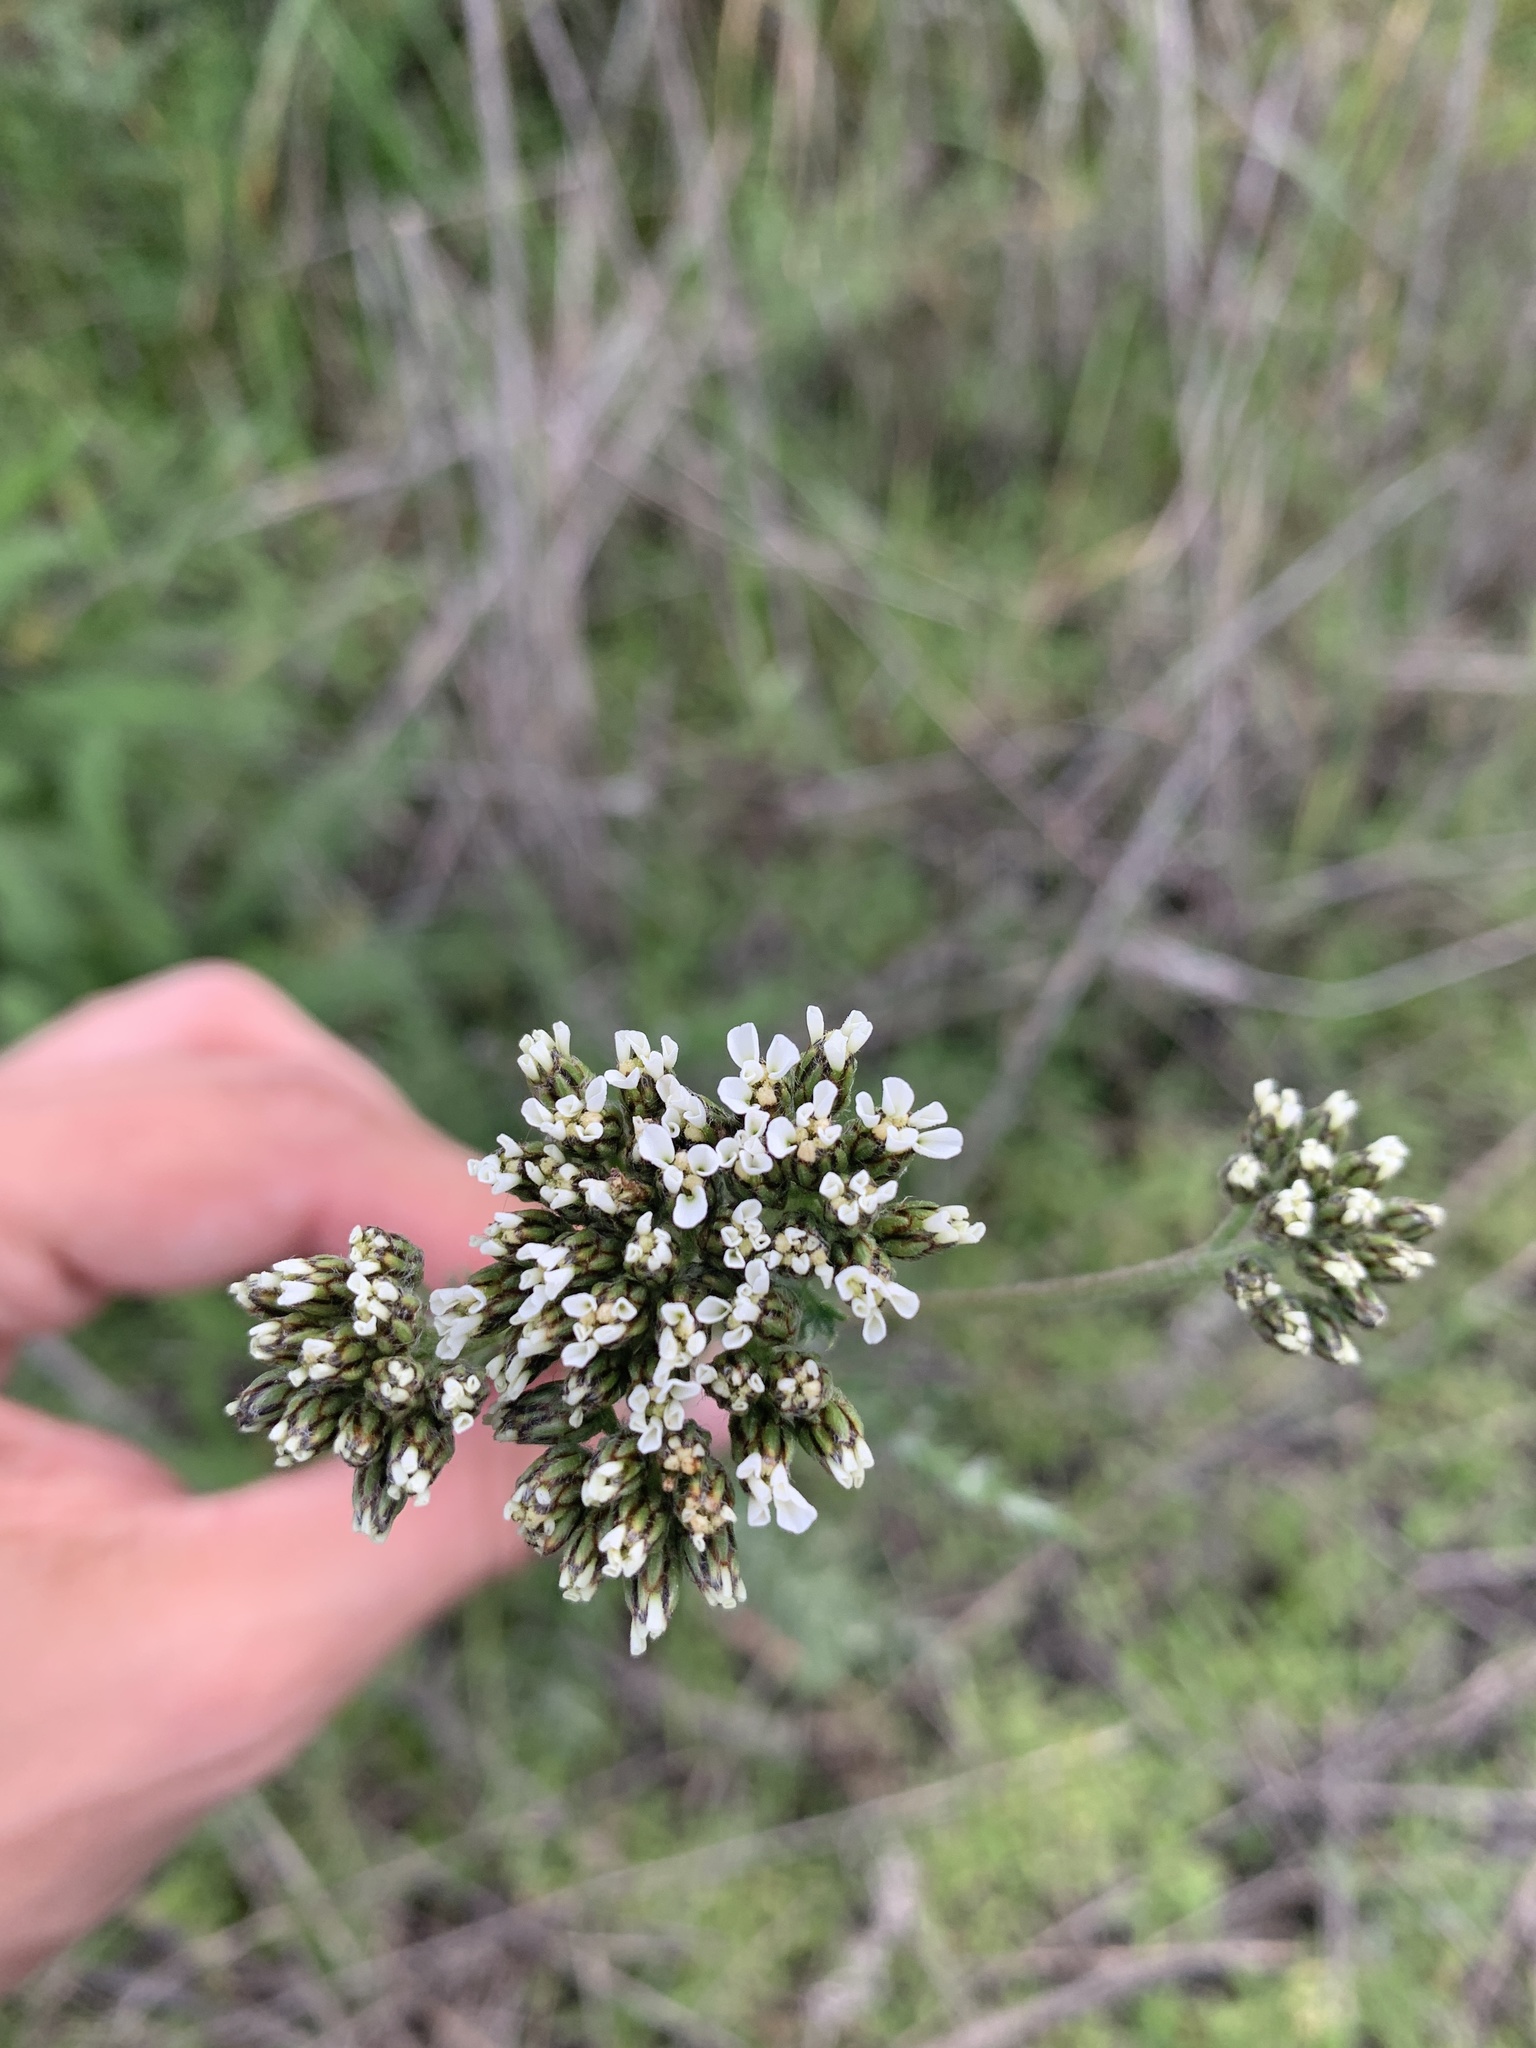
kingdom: Plantae
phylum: Tracheophyta
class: Magnoliopsida
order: Asterales
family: Asteraceae
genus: Achillea
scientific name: Achillea millefolium
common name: Yarrow
